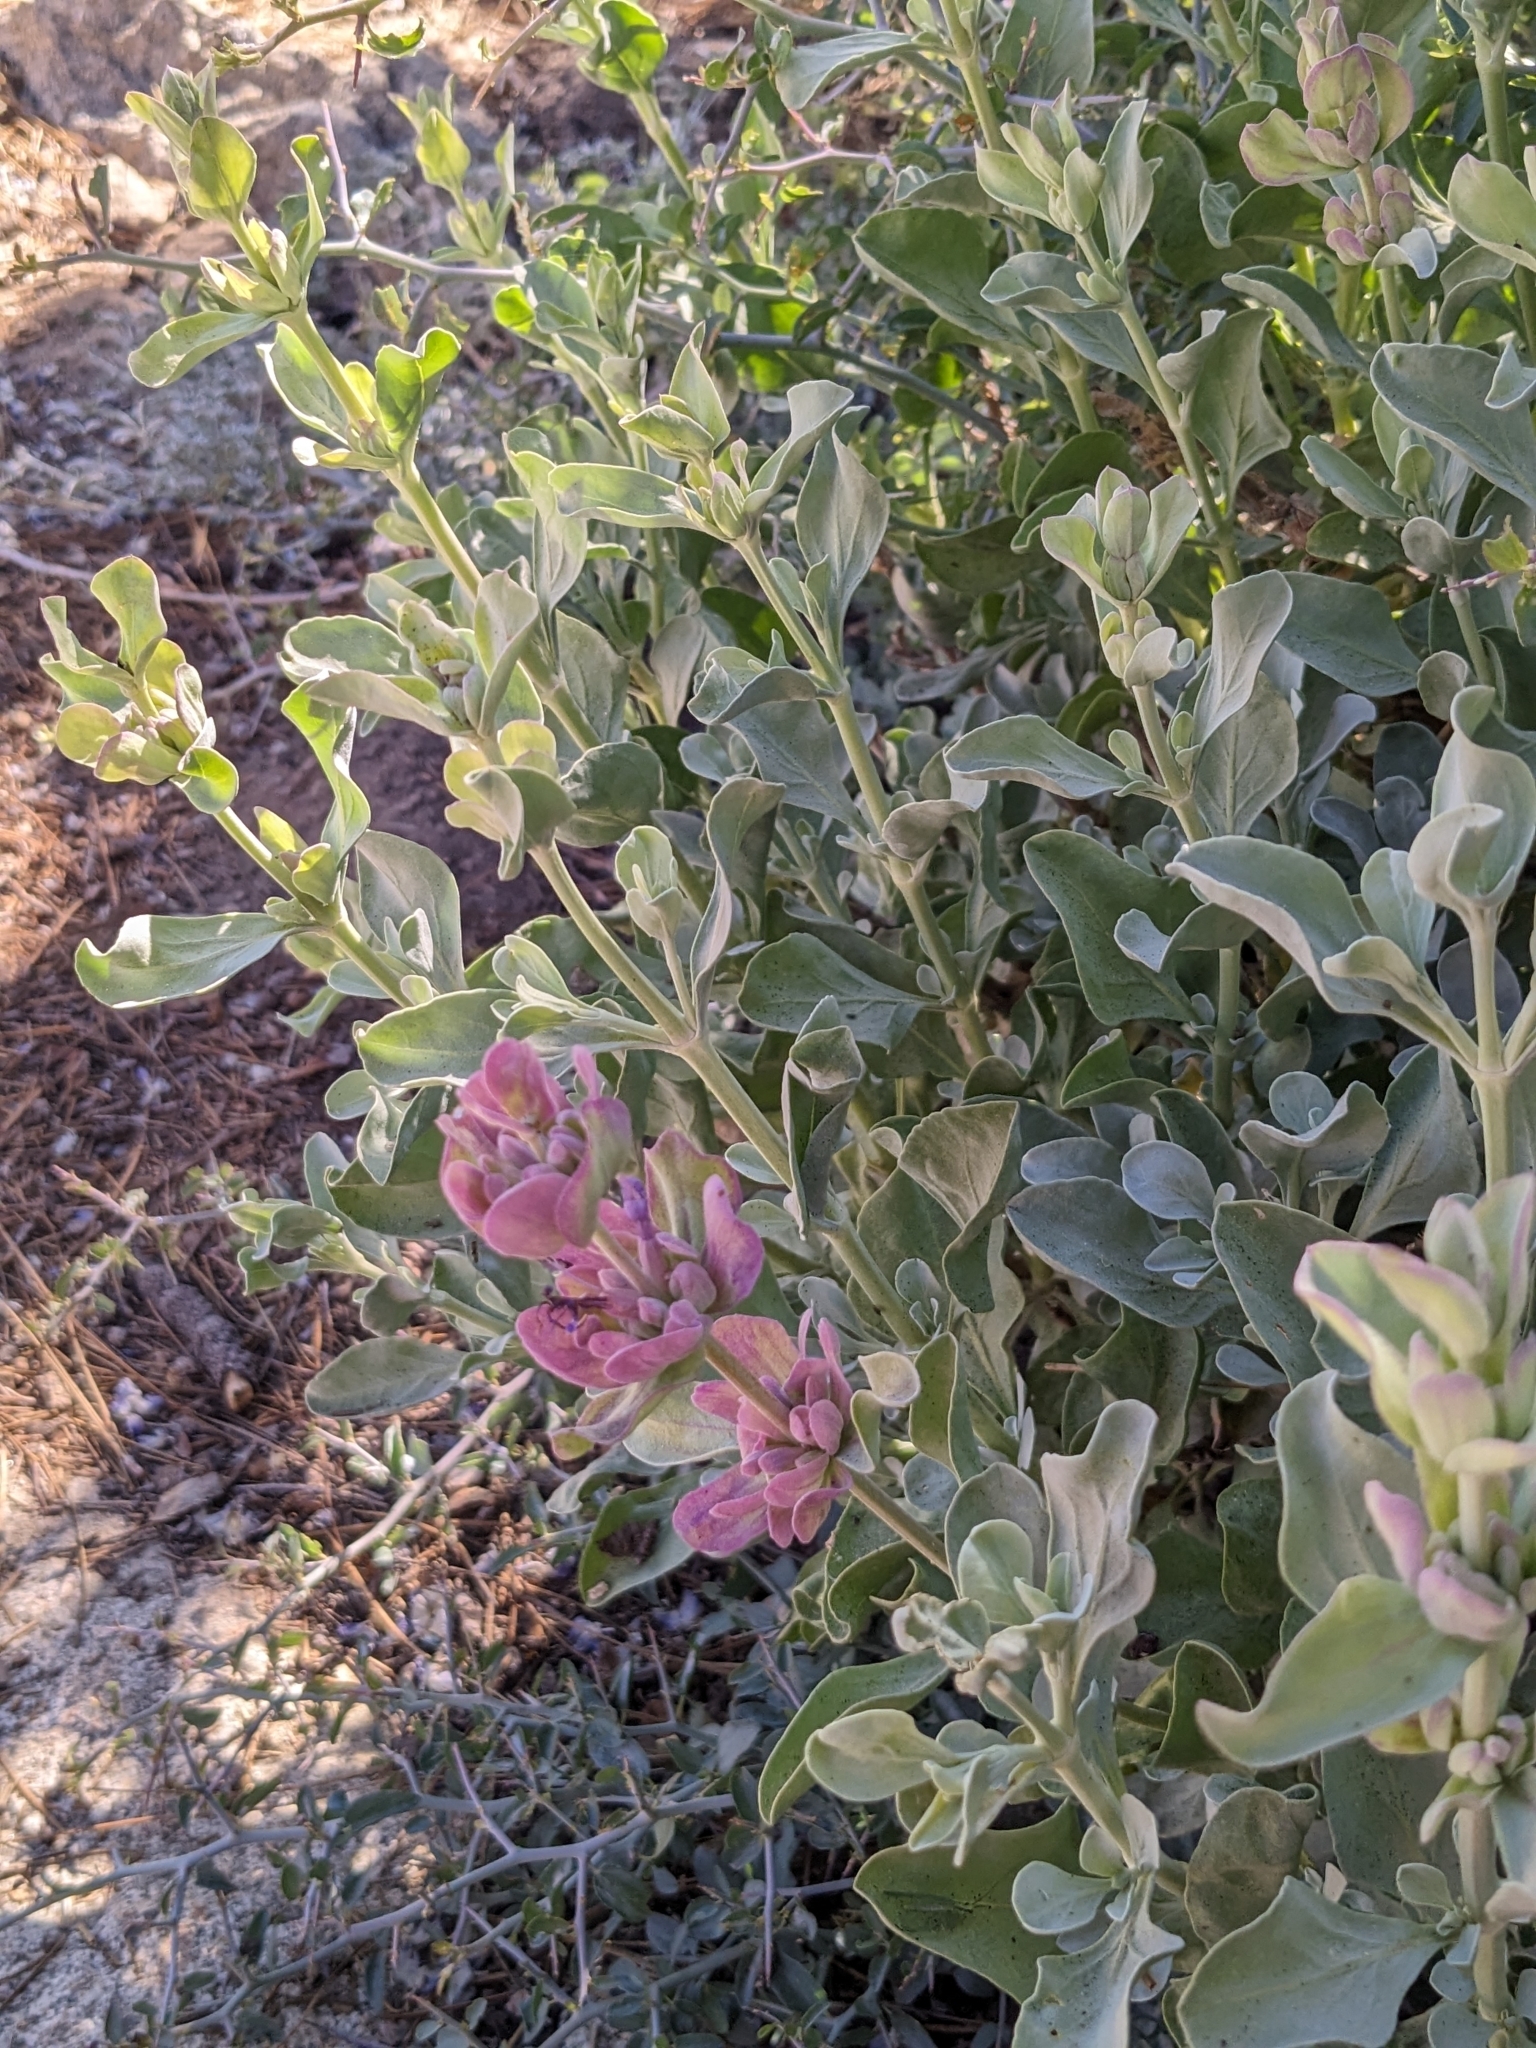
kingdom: Plantae
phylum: Tracheophyta
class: Magnoliopsida
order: Lamiales
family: Lamiaceae
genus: Salvia
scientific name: Salvia pachyphylla
